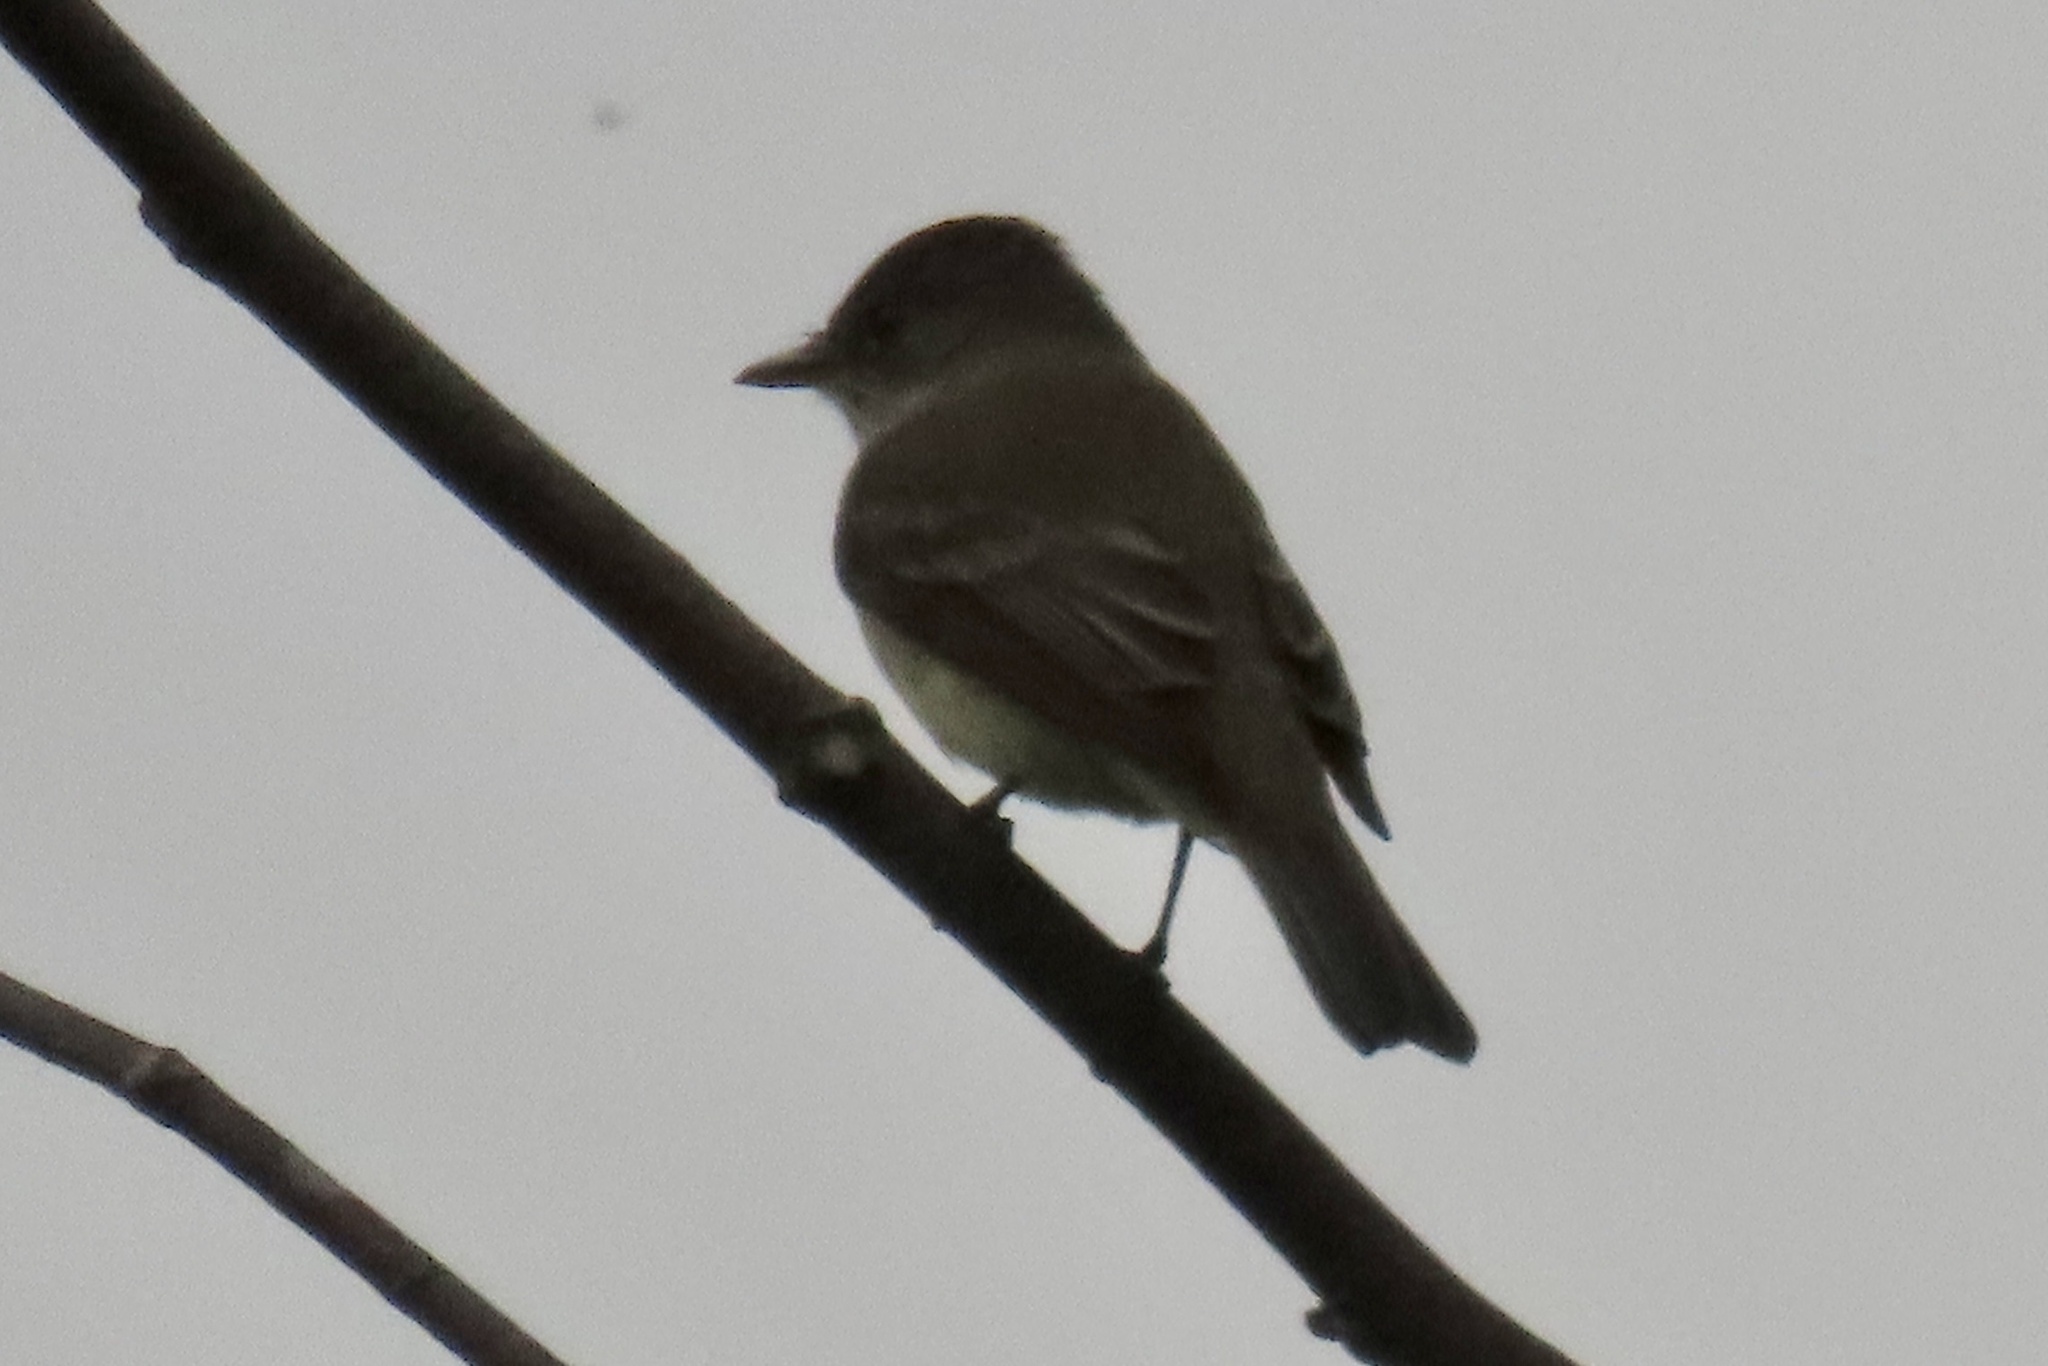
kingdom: Animalia
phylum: Chordata
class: Aves
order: Passeriformes
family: Tyrannidae
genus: Empidonax
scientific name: Empidonax traillii
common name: Willow flycatcher
